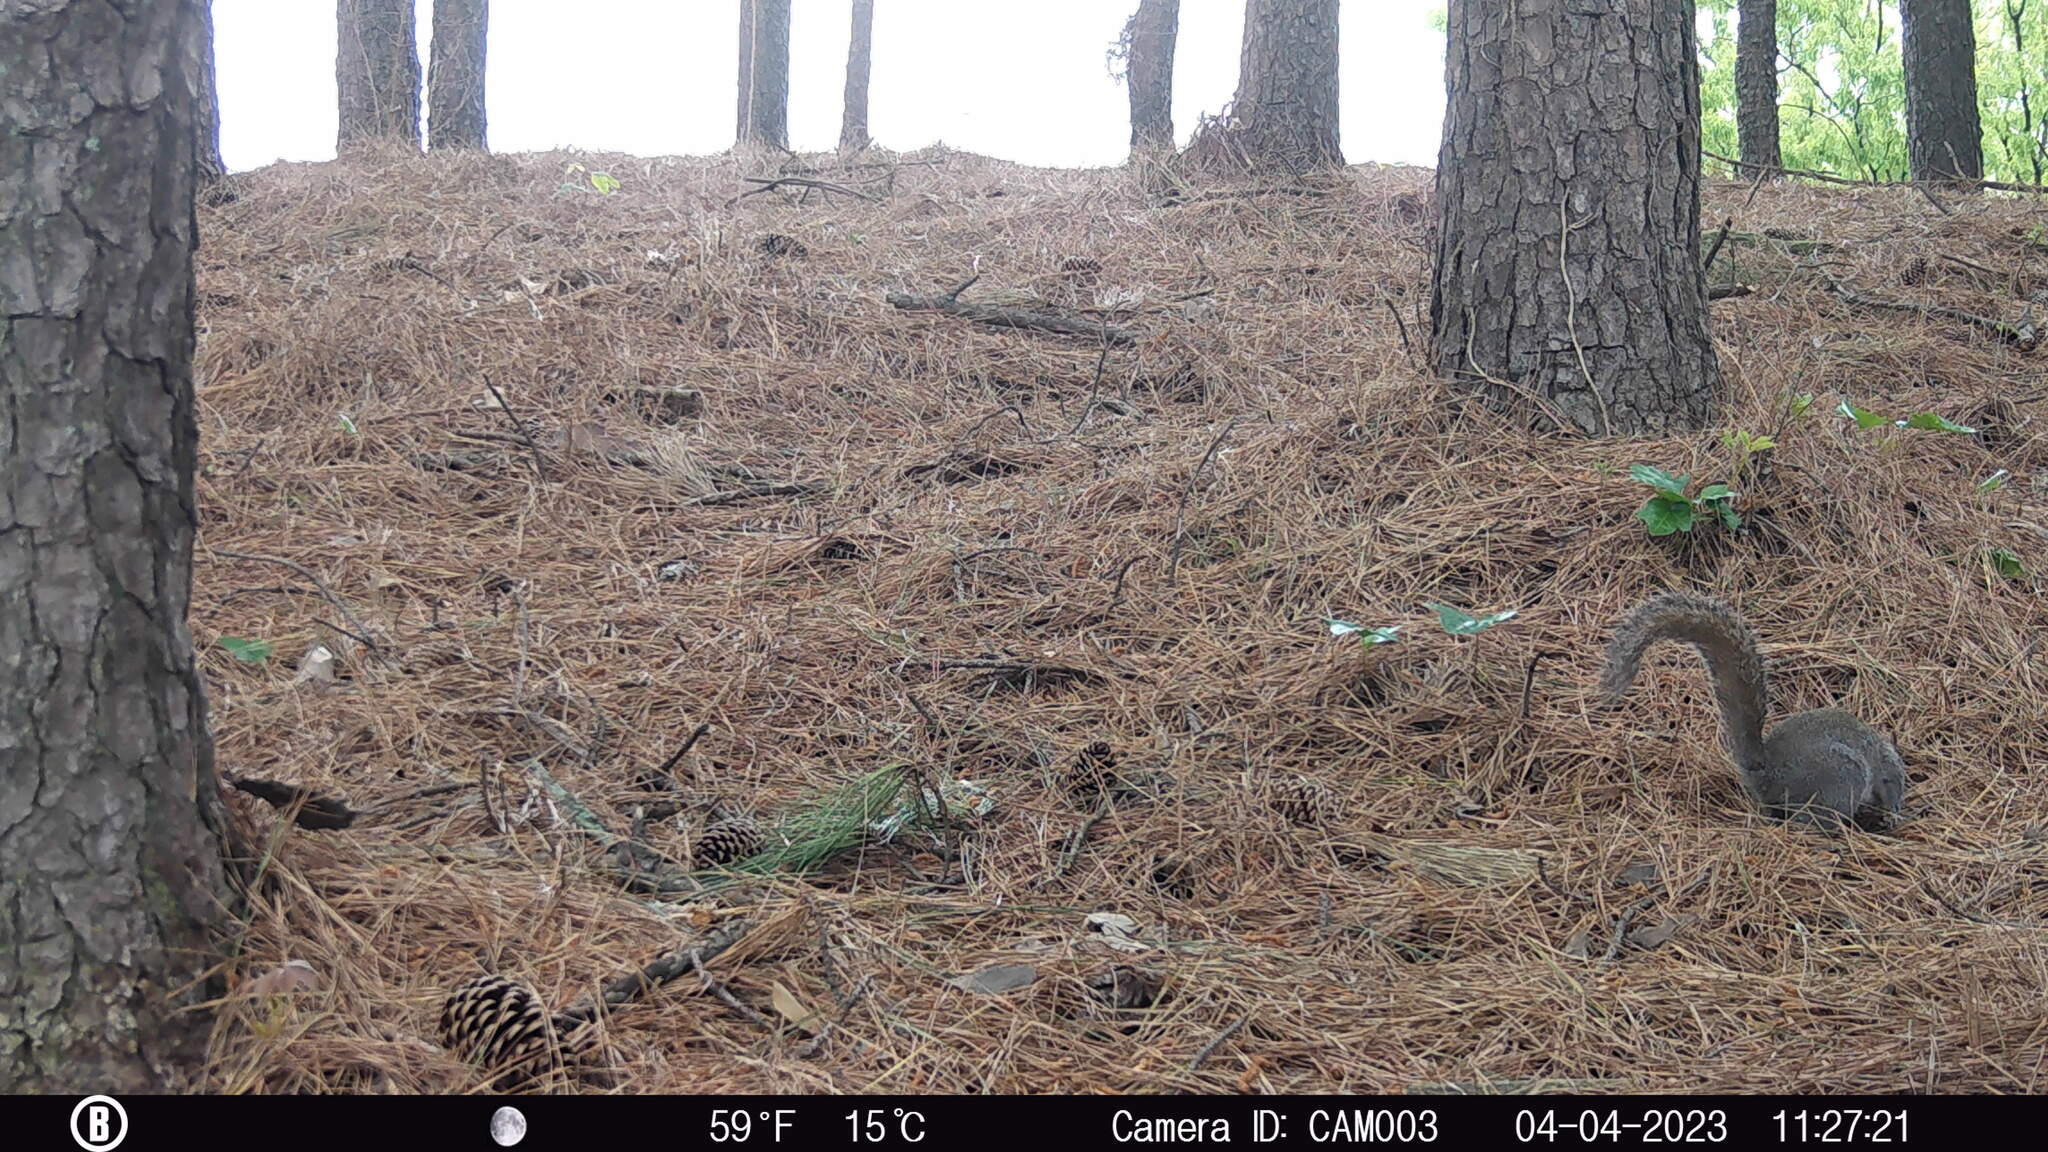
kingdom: Animalia
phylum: Chordata
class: Mammalia
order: Rodentia
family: Sciuridae
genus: Sciurus
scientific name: Sciurus carolinensis
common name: Eastern gray squirrel
